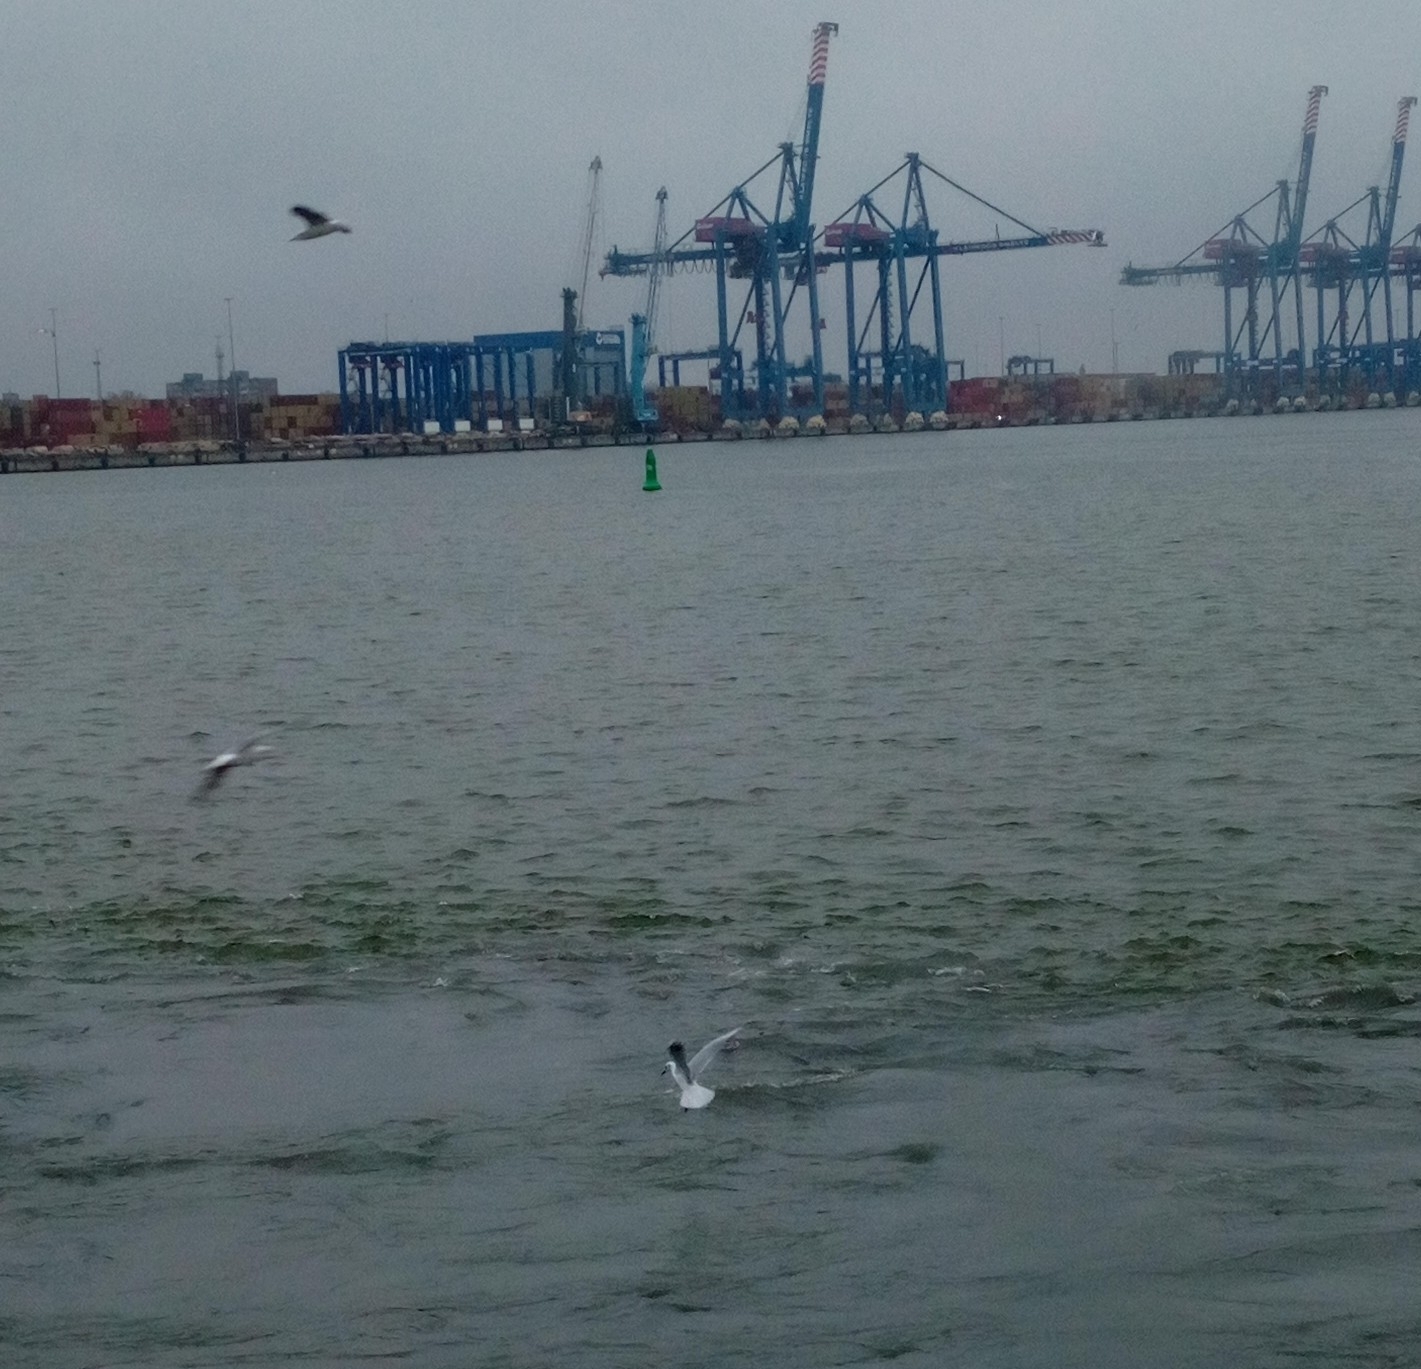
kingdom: Animalia
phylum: Chordata
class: Aves
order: Charadriiformes
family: Laridae
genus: Chroicocephalus
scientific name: Chroicocephalus ridibundus
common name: Black-headed gull
